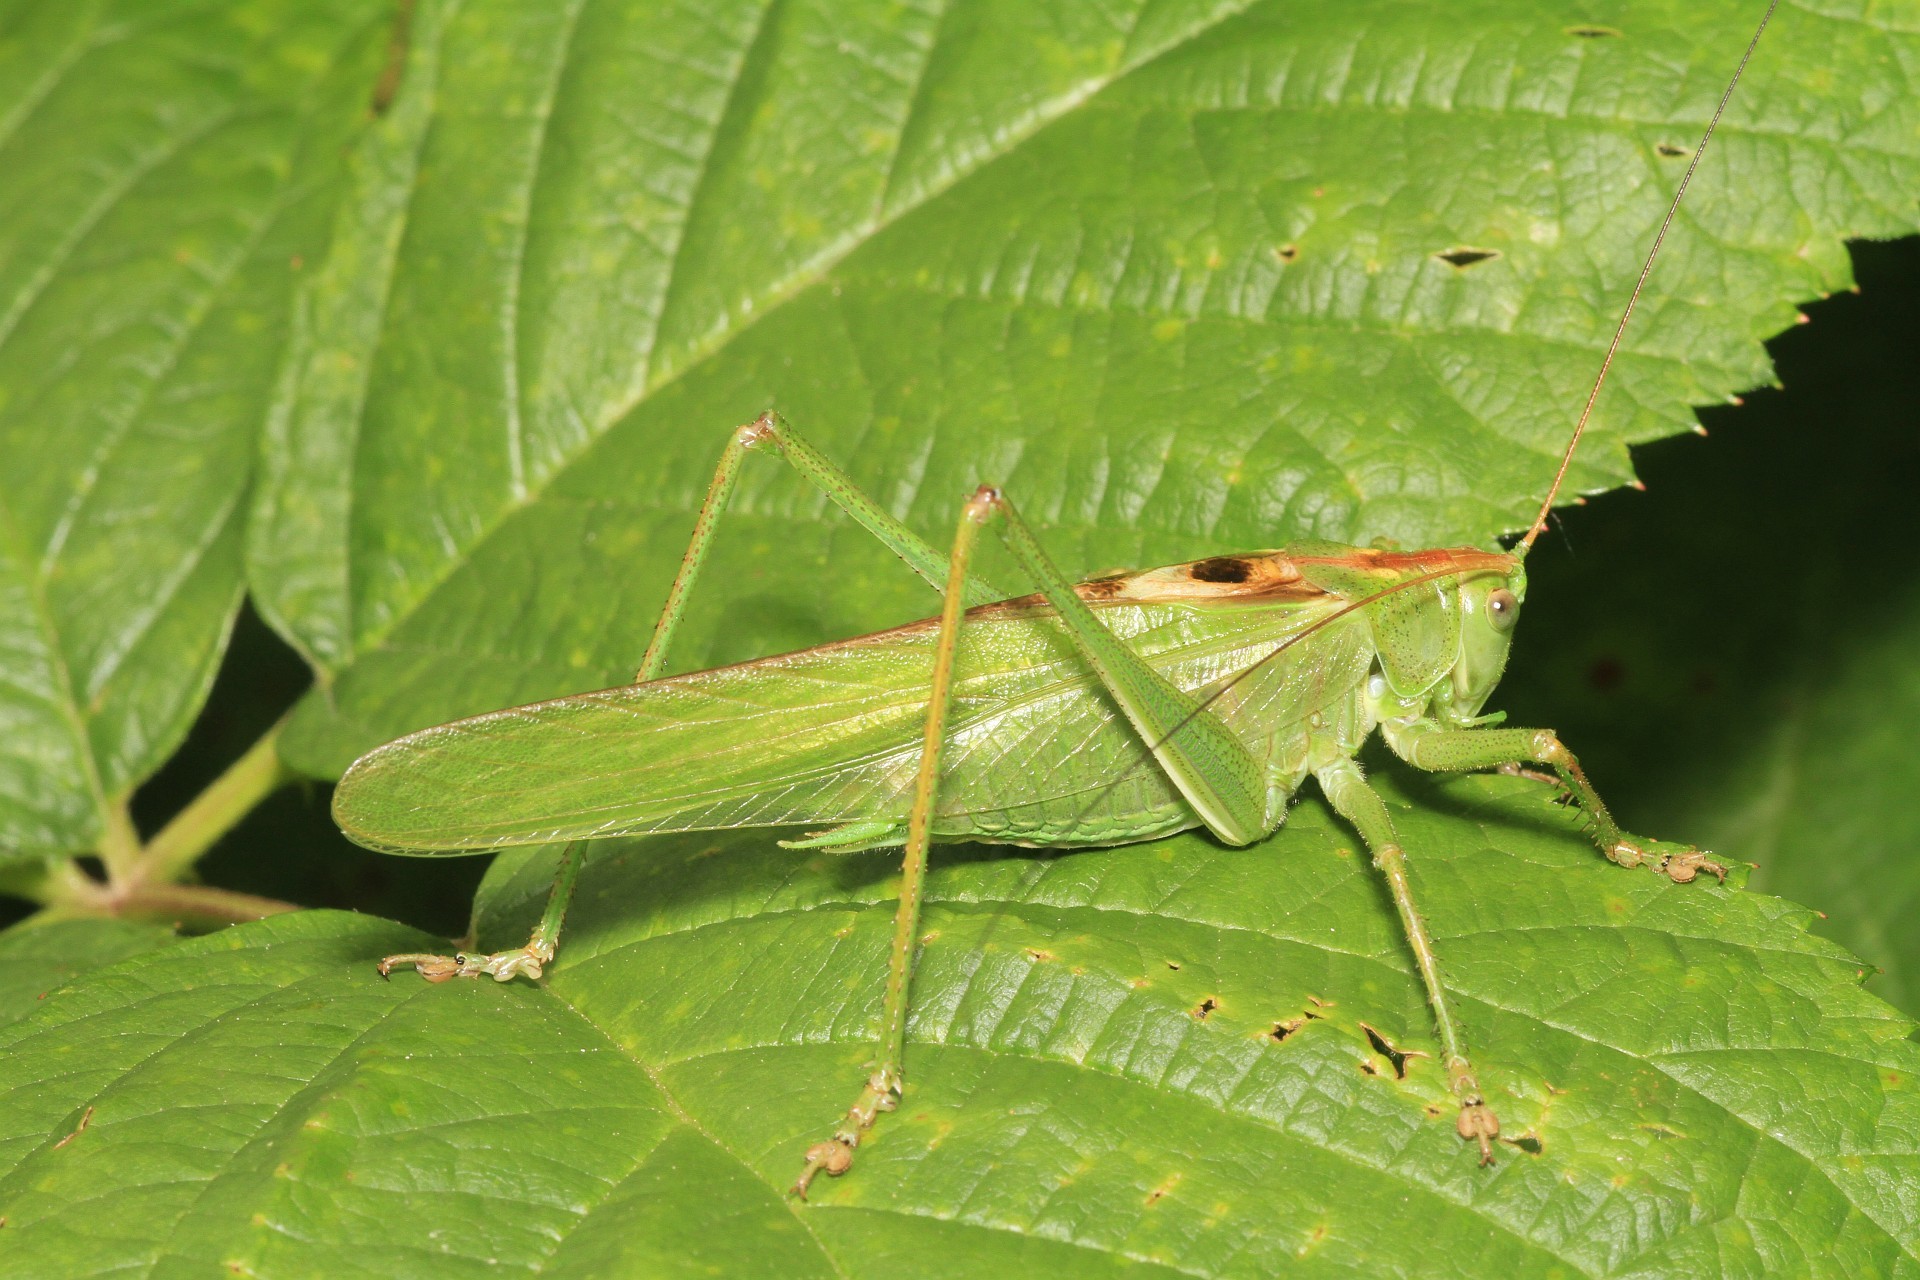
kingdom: Animalia
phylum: Arthropoda
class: Insecta
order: Orthoptera
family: Tettigoniidae
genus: Tettigonia
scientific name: Tettigonia viridissima
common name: Great green bush-cricket
